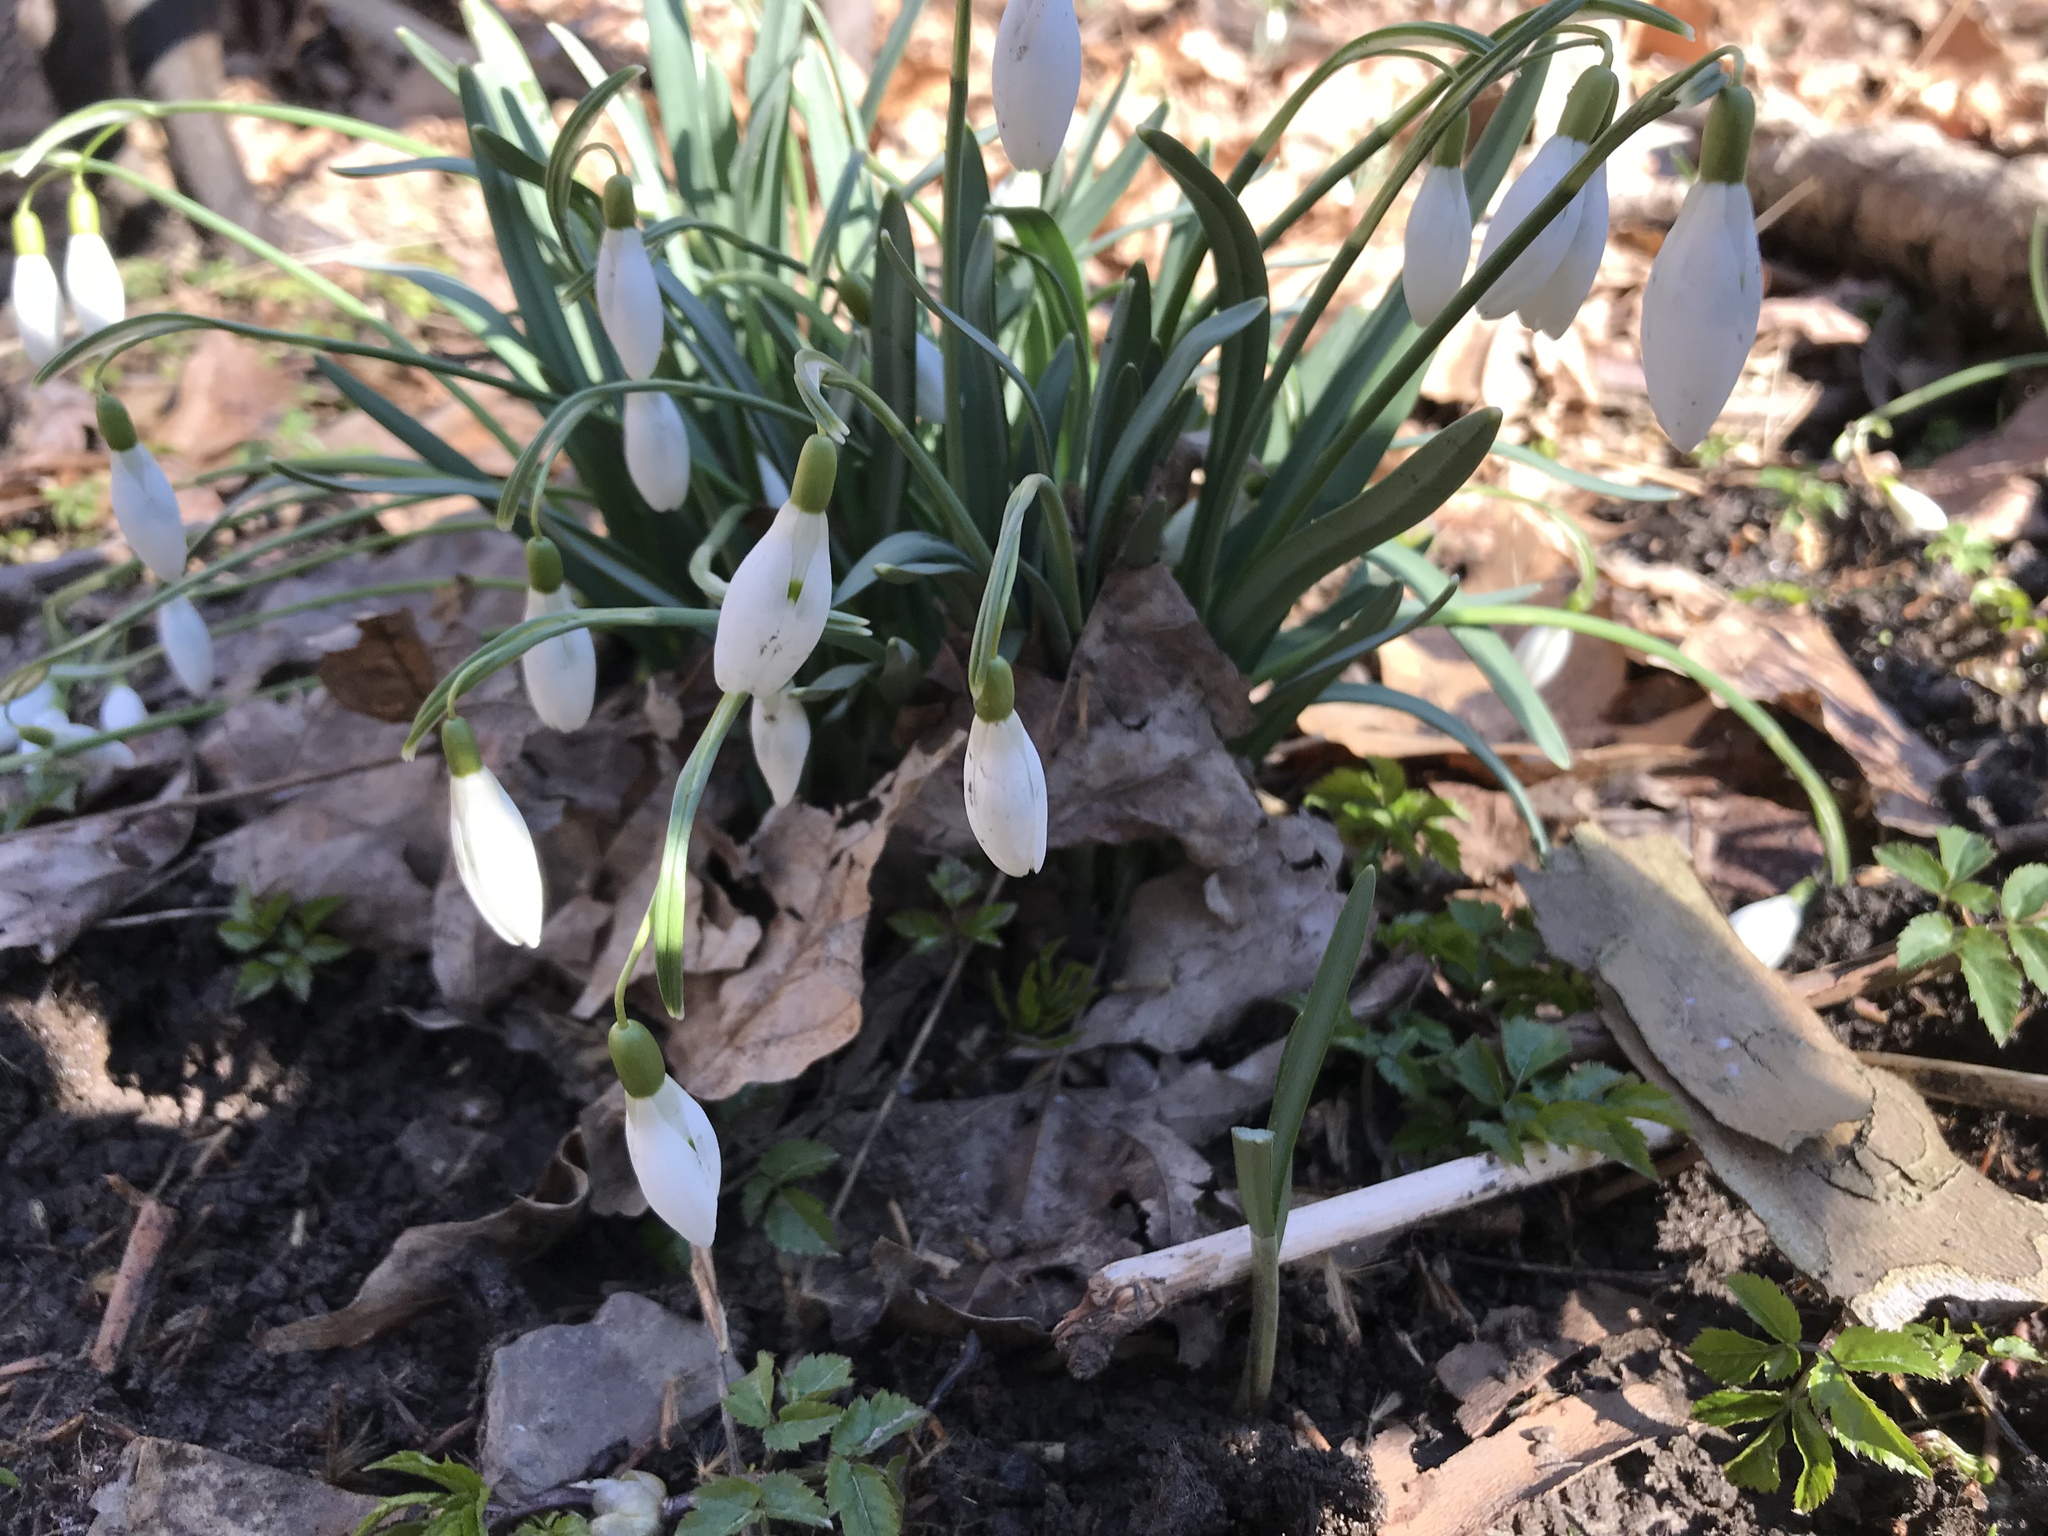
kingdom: Plantae
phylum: Tracheophyta
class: Liliopsida
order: Asparagales
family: Amaryllidaceae
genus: Galanthus
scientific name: Galanthus nivalis
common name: Snowdrop
